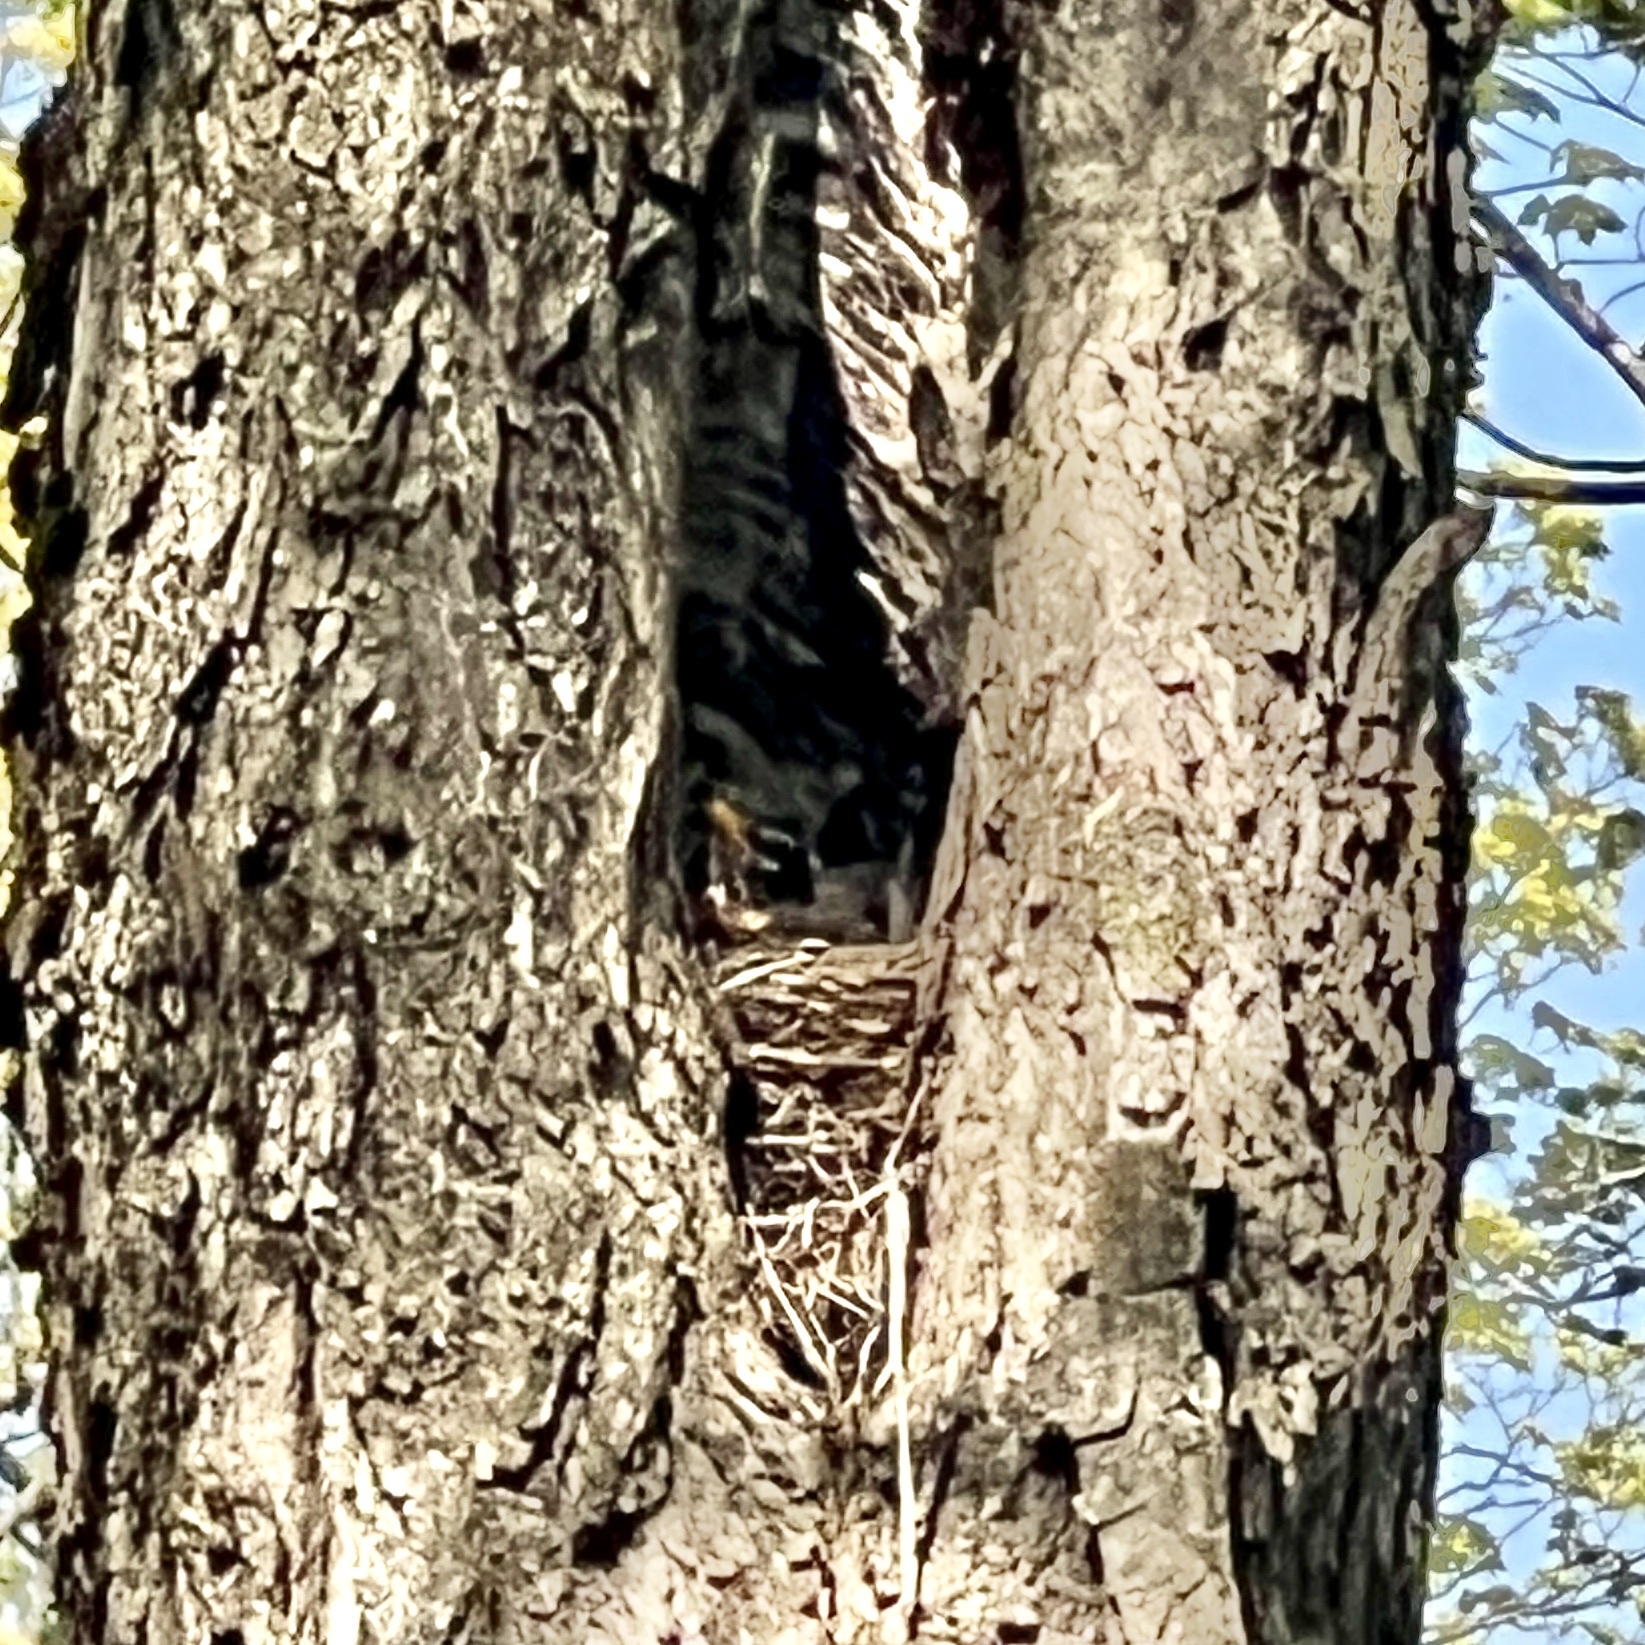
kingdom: Animalia
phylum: Chordata
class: Aves
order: Passeriformes
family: Turdidae
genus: Turdus
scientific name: Turdus migratorius
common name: American robin
